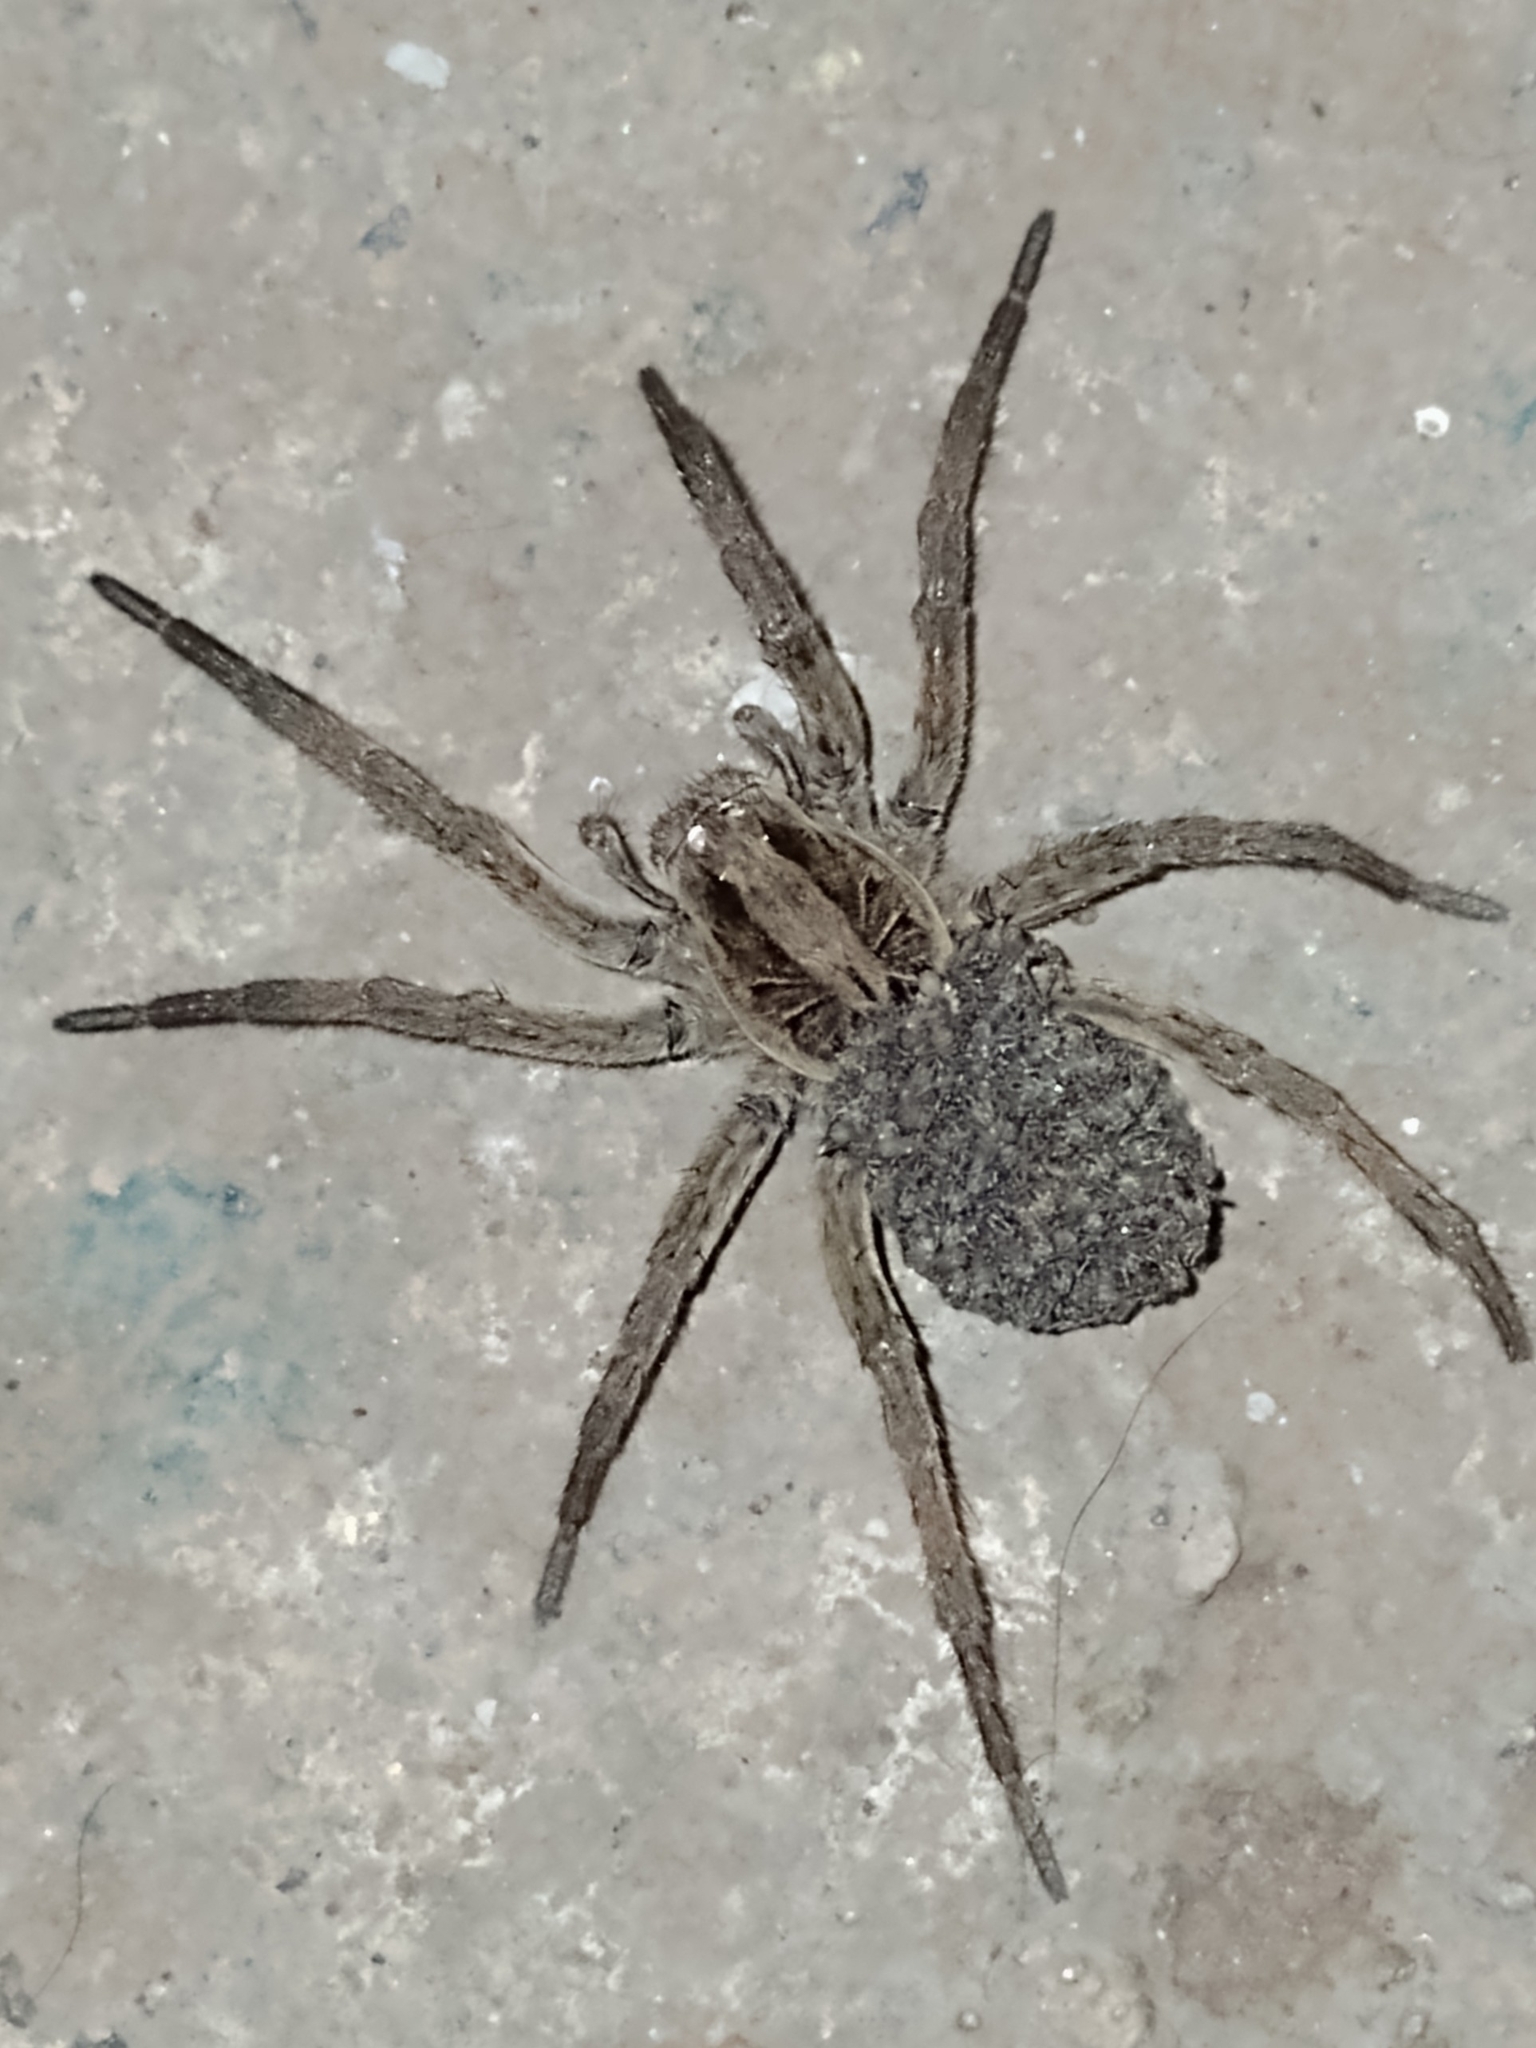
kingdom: Animalia
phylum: Arthropoda
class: Arachnida
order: Araneae
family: Lycosidae
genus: Lycosa
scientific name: Lycosa erythrognatha
